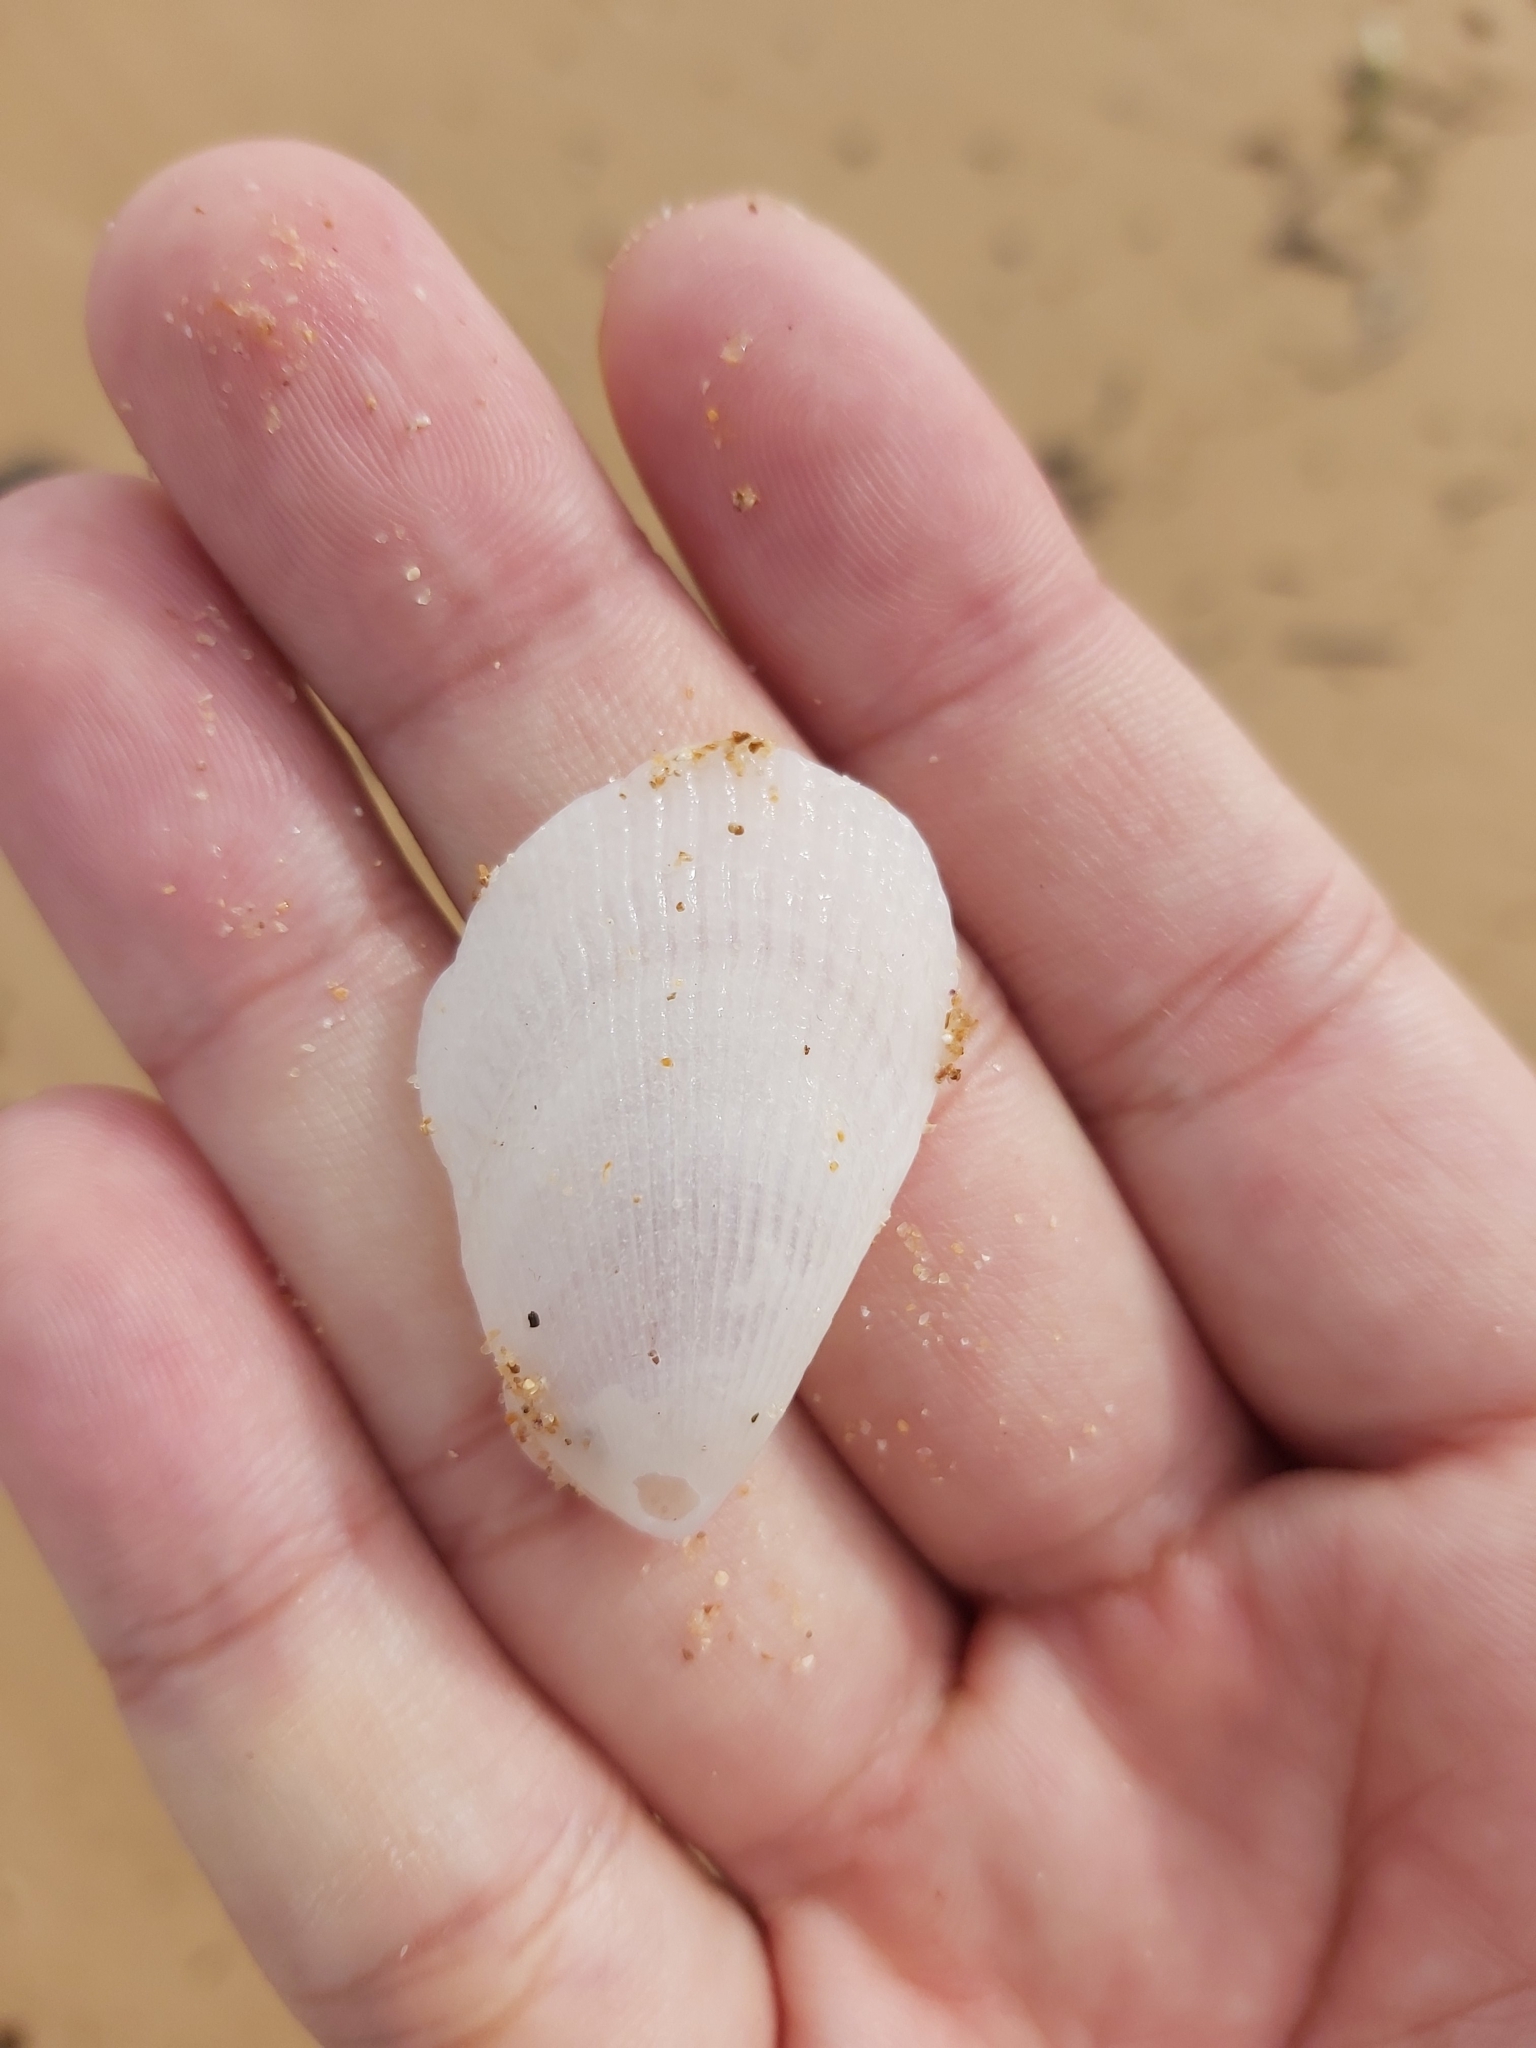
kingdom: Animalia
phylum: Mollusca
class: Bivalvia
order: Limida
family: Limidae
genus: Lima
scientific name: Lima nimbifer
